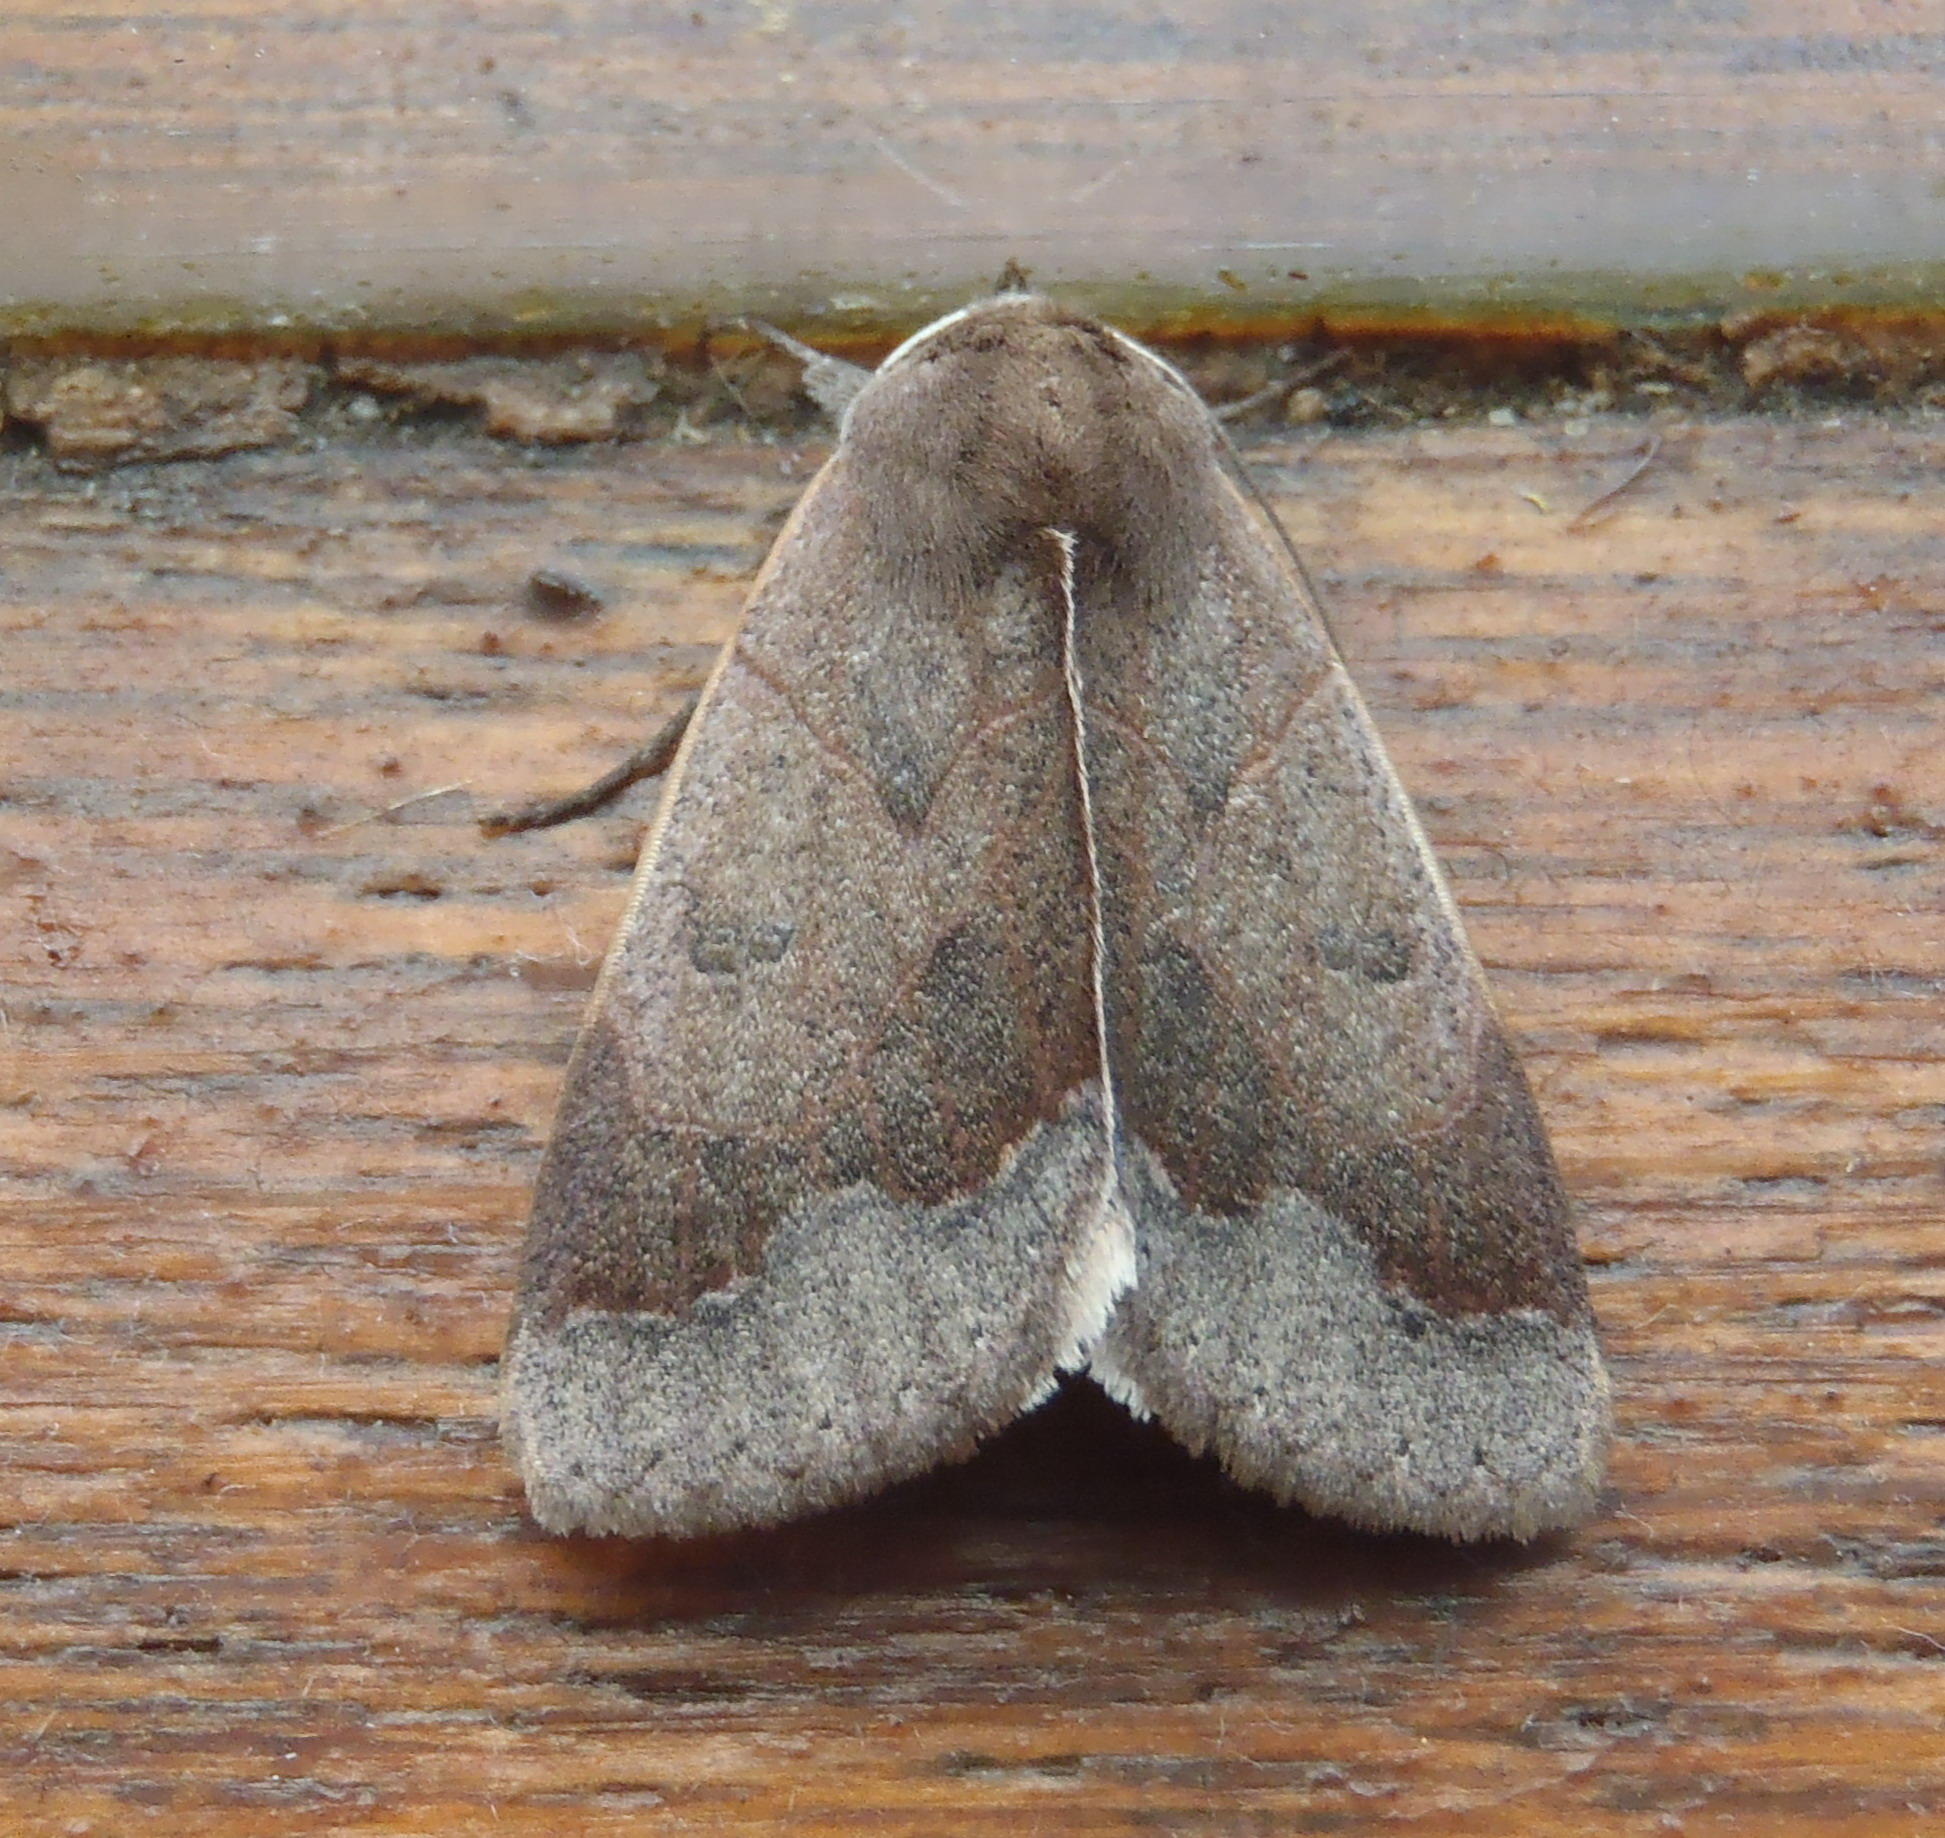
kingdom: Animalia
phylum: Arthropoda
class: Insecta
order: Lepidoptera
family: Erebidae
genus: Ophiusa
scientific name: Ophiusa selenaris
